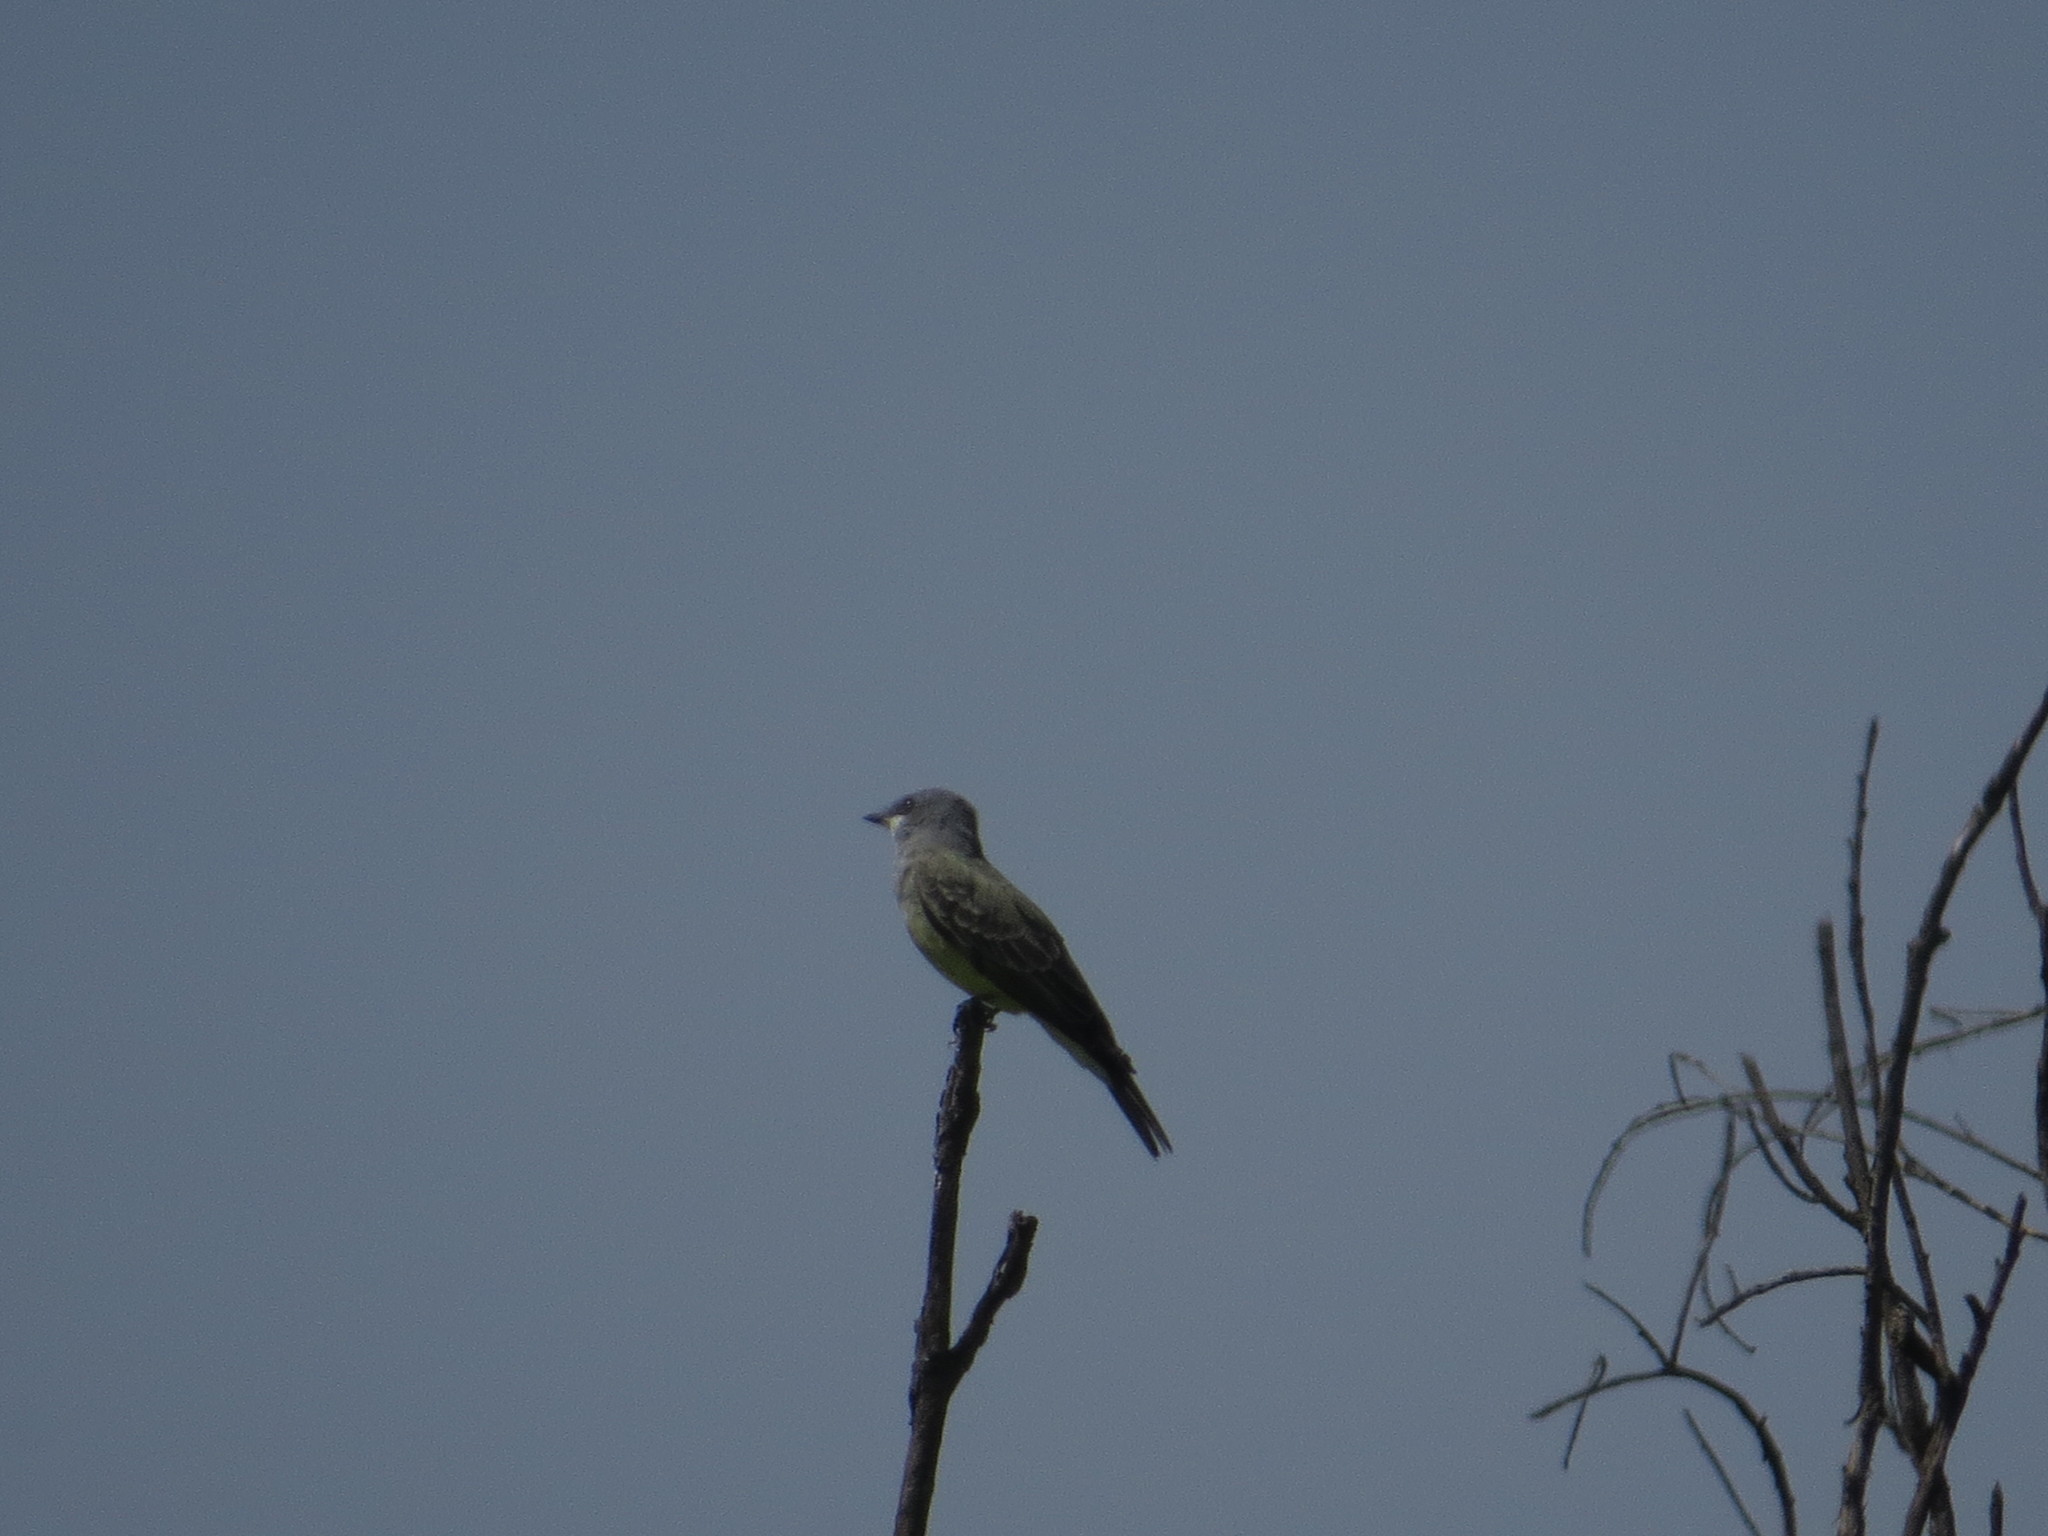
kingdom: Animalia
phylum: Chordata
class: Aves
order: Passeriformes
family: Tyrannidae
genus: Tyrannus
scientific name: Tyrannus vociferans
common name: Cassin's kingbird
